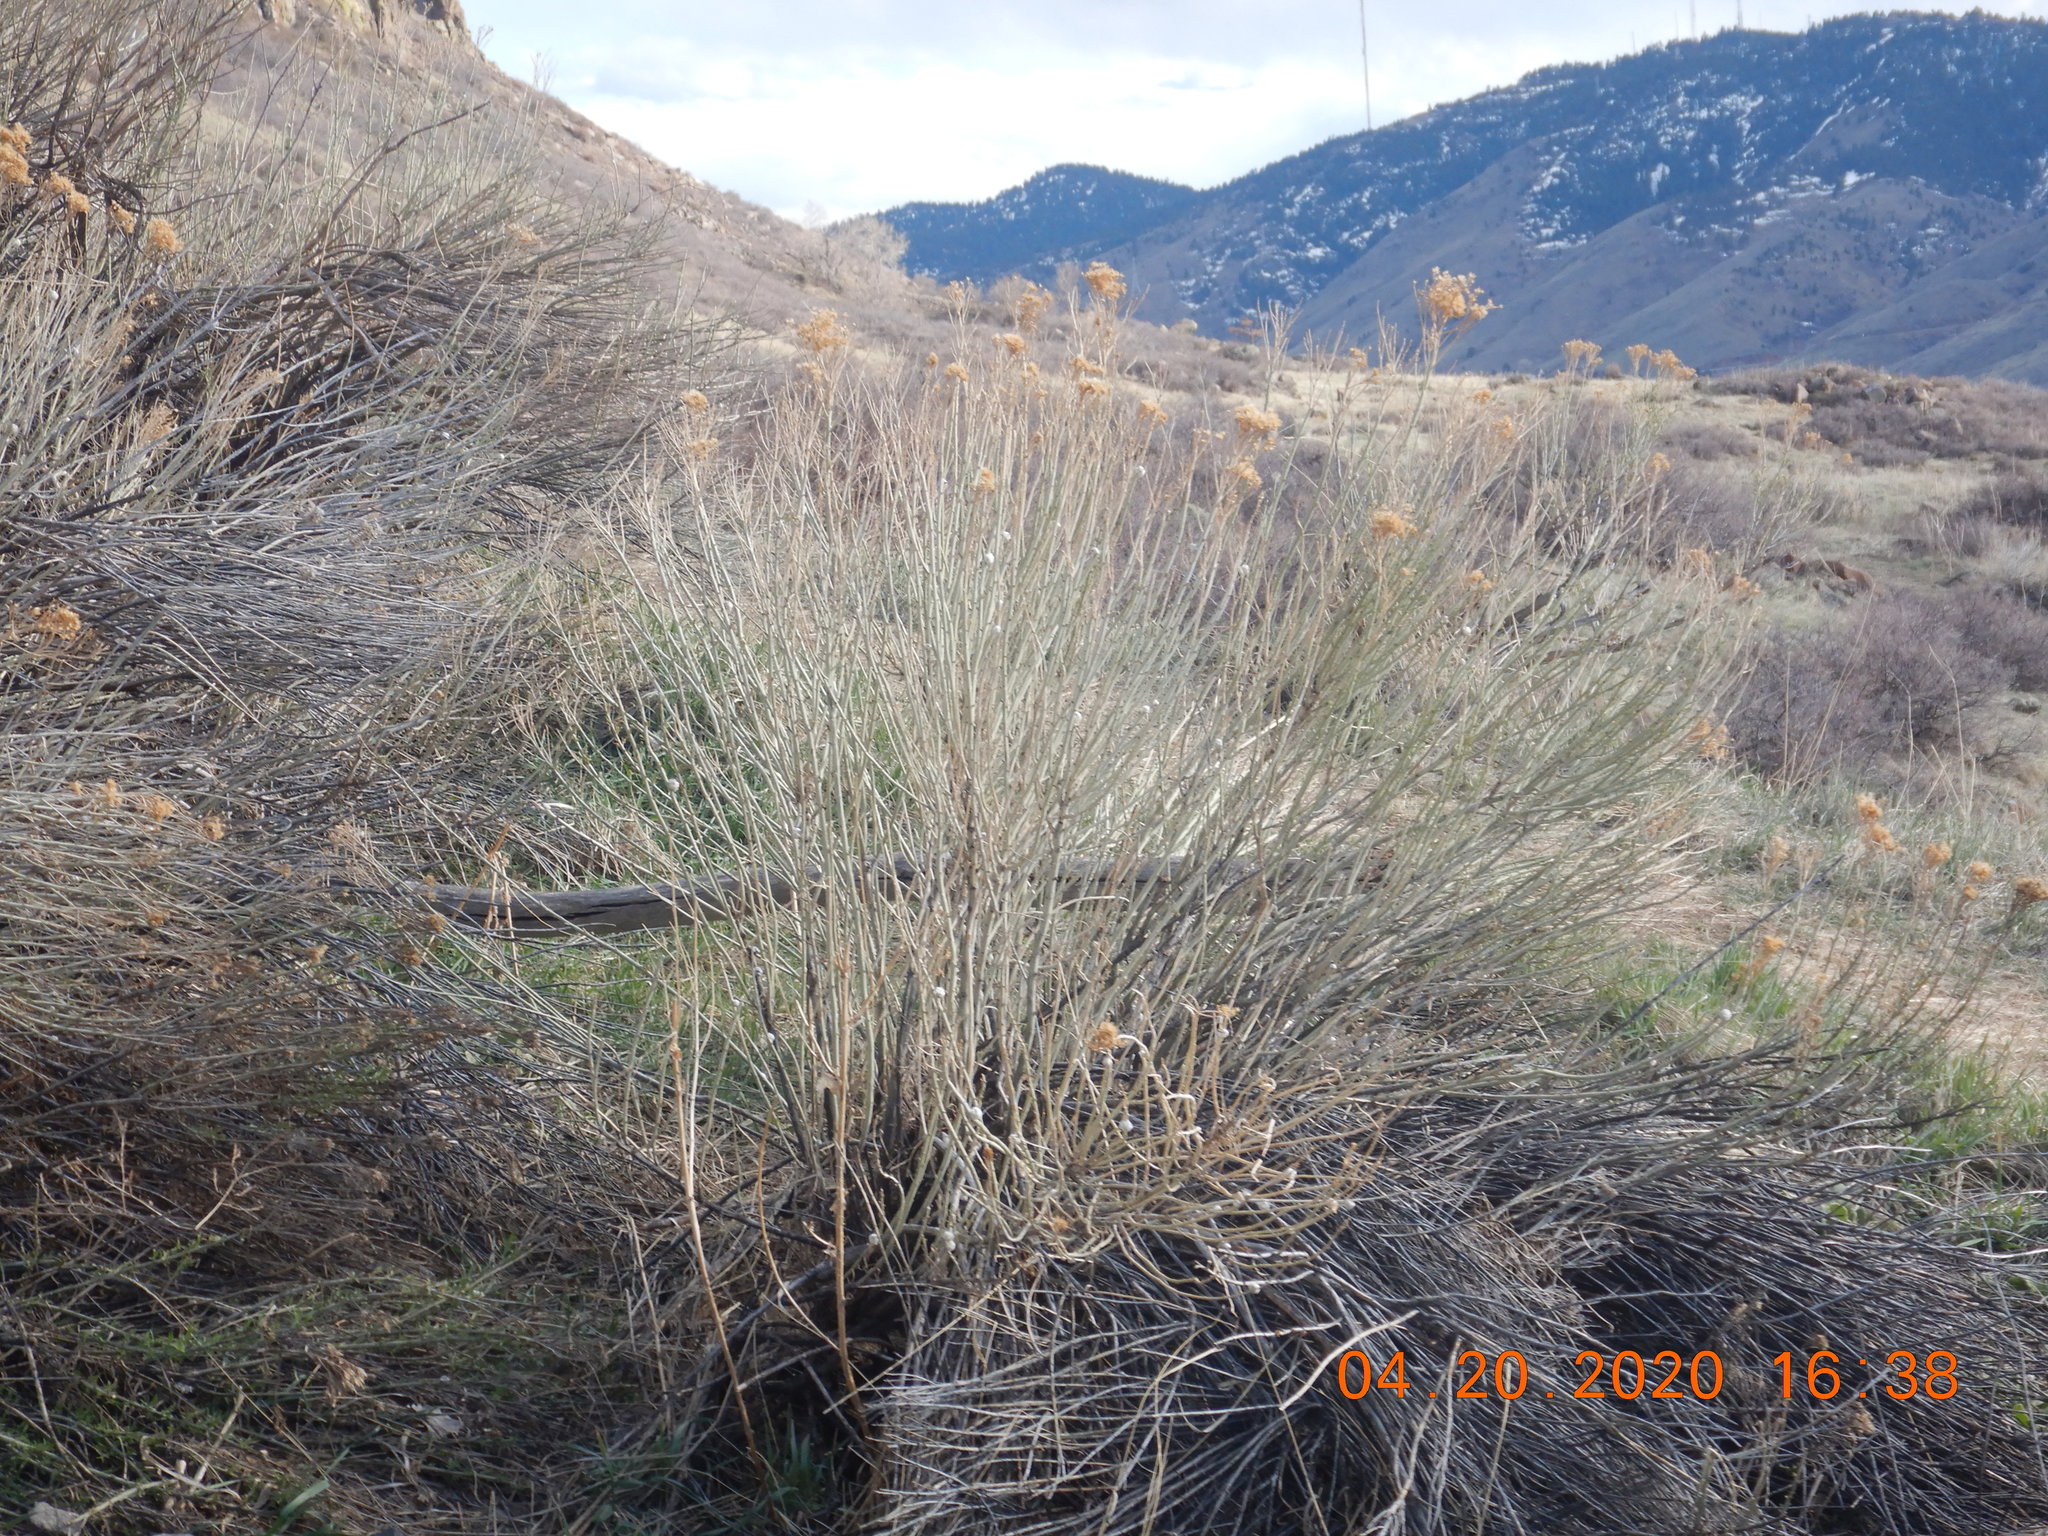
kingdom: Plantae
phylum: Tracheophyta
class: Magnoliopsida
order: Asterales
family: Asteraceae
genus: Ericameria
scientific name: Ericameria nauseosa
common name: Rubber rabbitbrush
